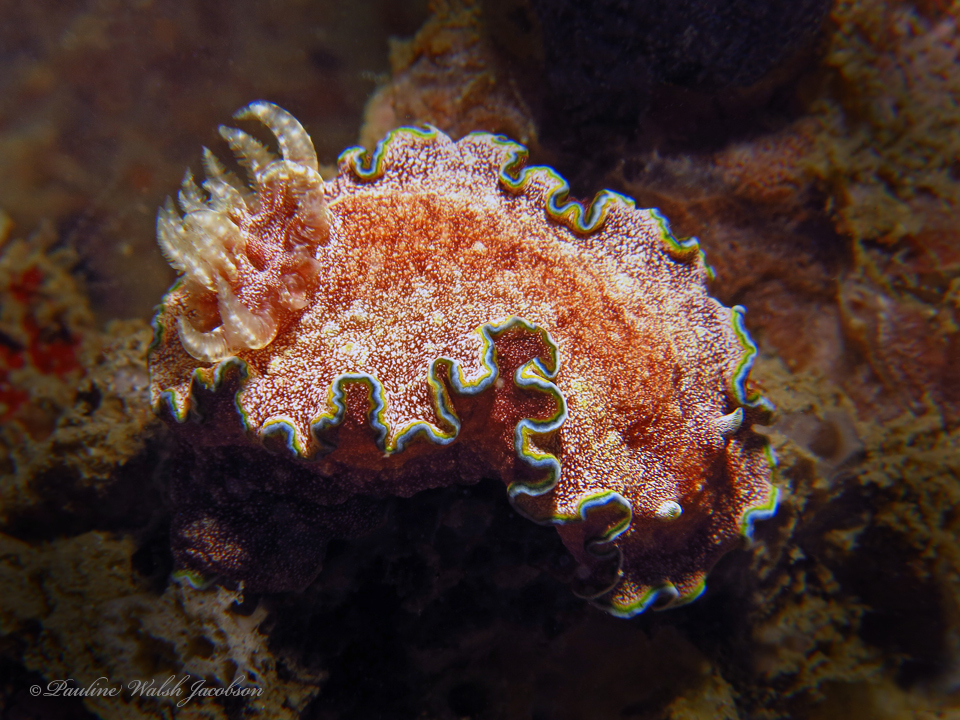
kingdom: Animalia
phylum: Mollusca
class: Gastropoda
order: Nudibranchia
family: Chromodorididae
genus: Glossodoris
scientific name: Glossodoris acosti
